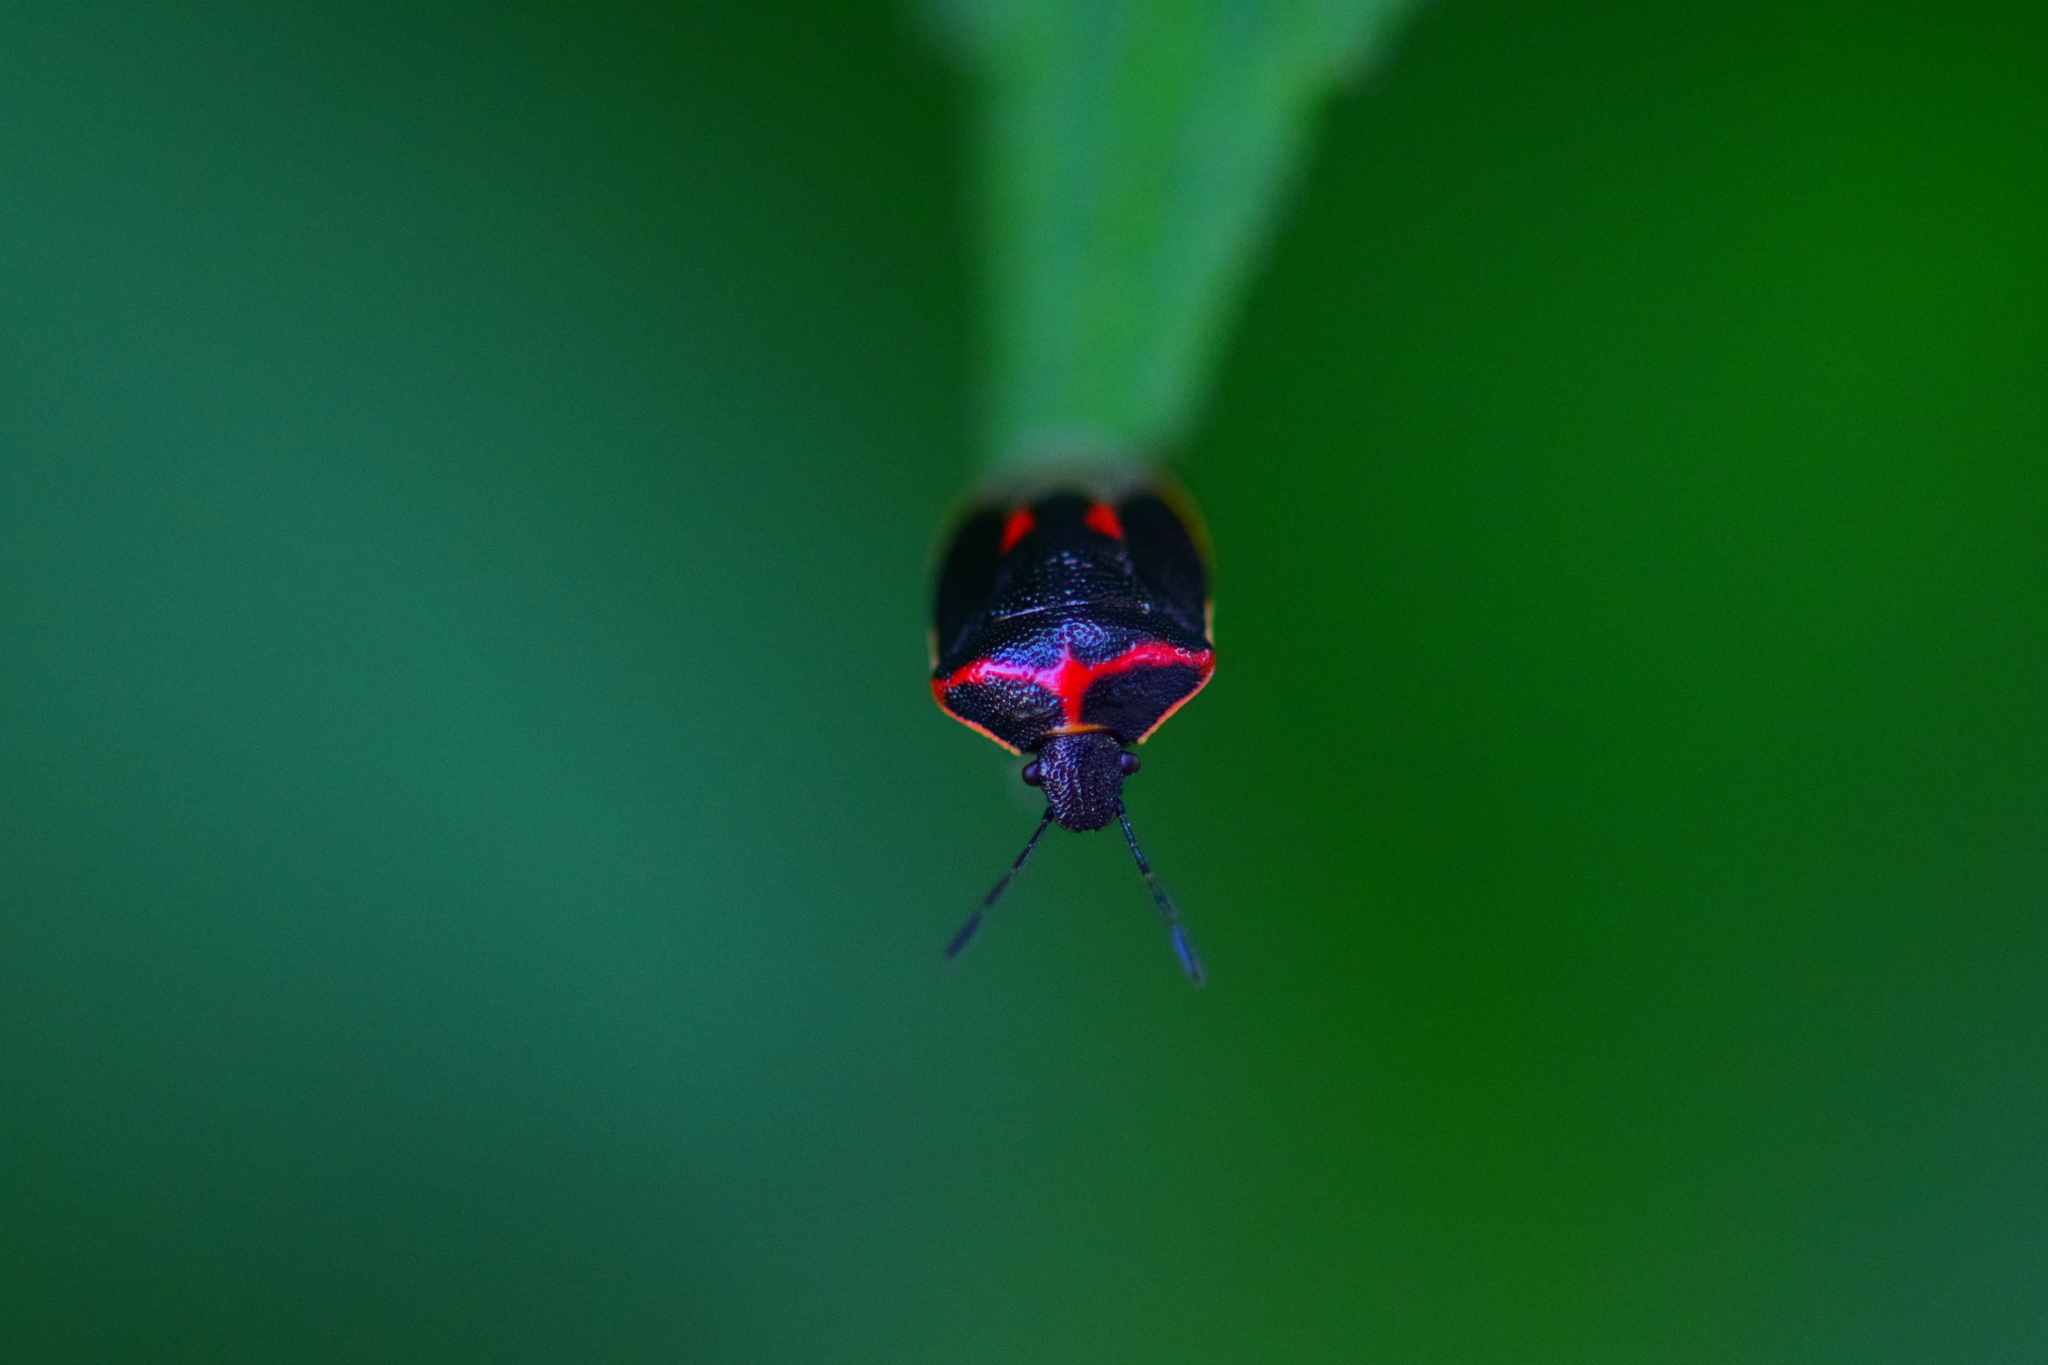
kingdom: Animalia
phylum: Arthropoda
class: Insecta
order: Hemiptera
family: Pentatomidae
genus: Cosmopepla
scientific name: Cosmopepla lintneriana
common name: Twice-stabbed stink bug
